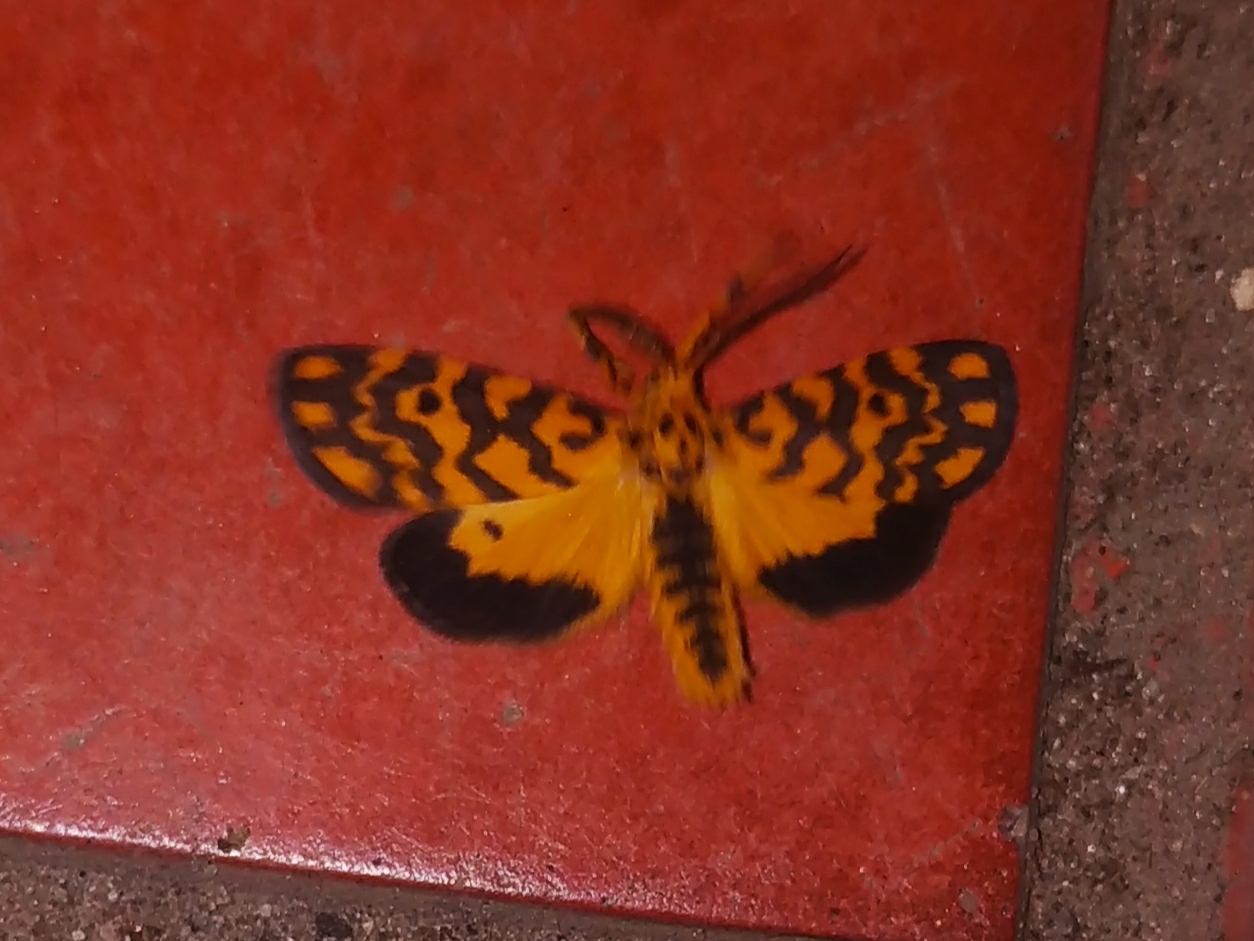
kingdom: Animalia
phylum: Arthropoda
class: Insecta
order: Lepidoptera
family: Erebidae
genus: Nepita
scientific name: Nepita conferta
